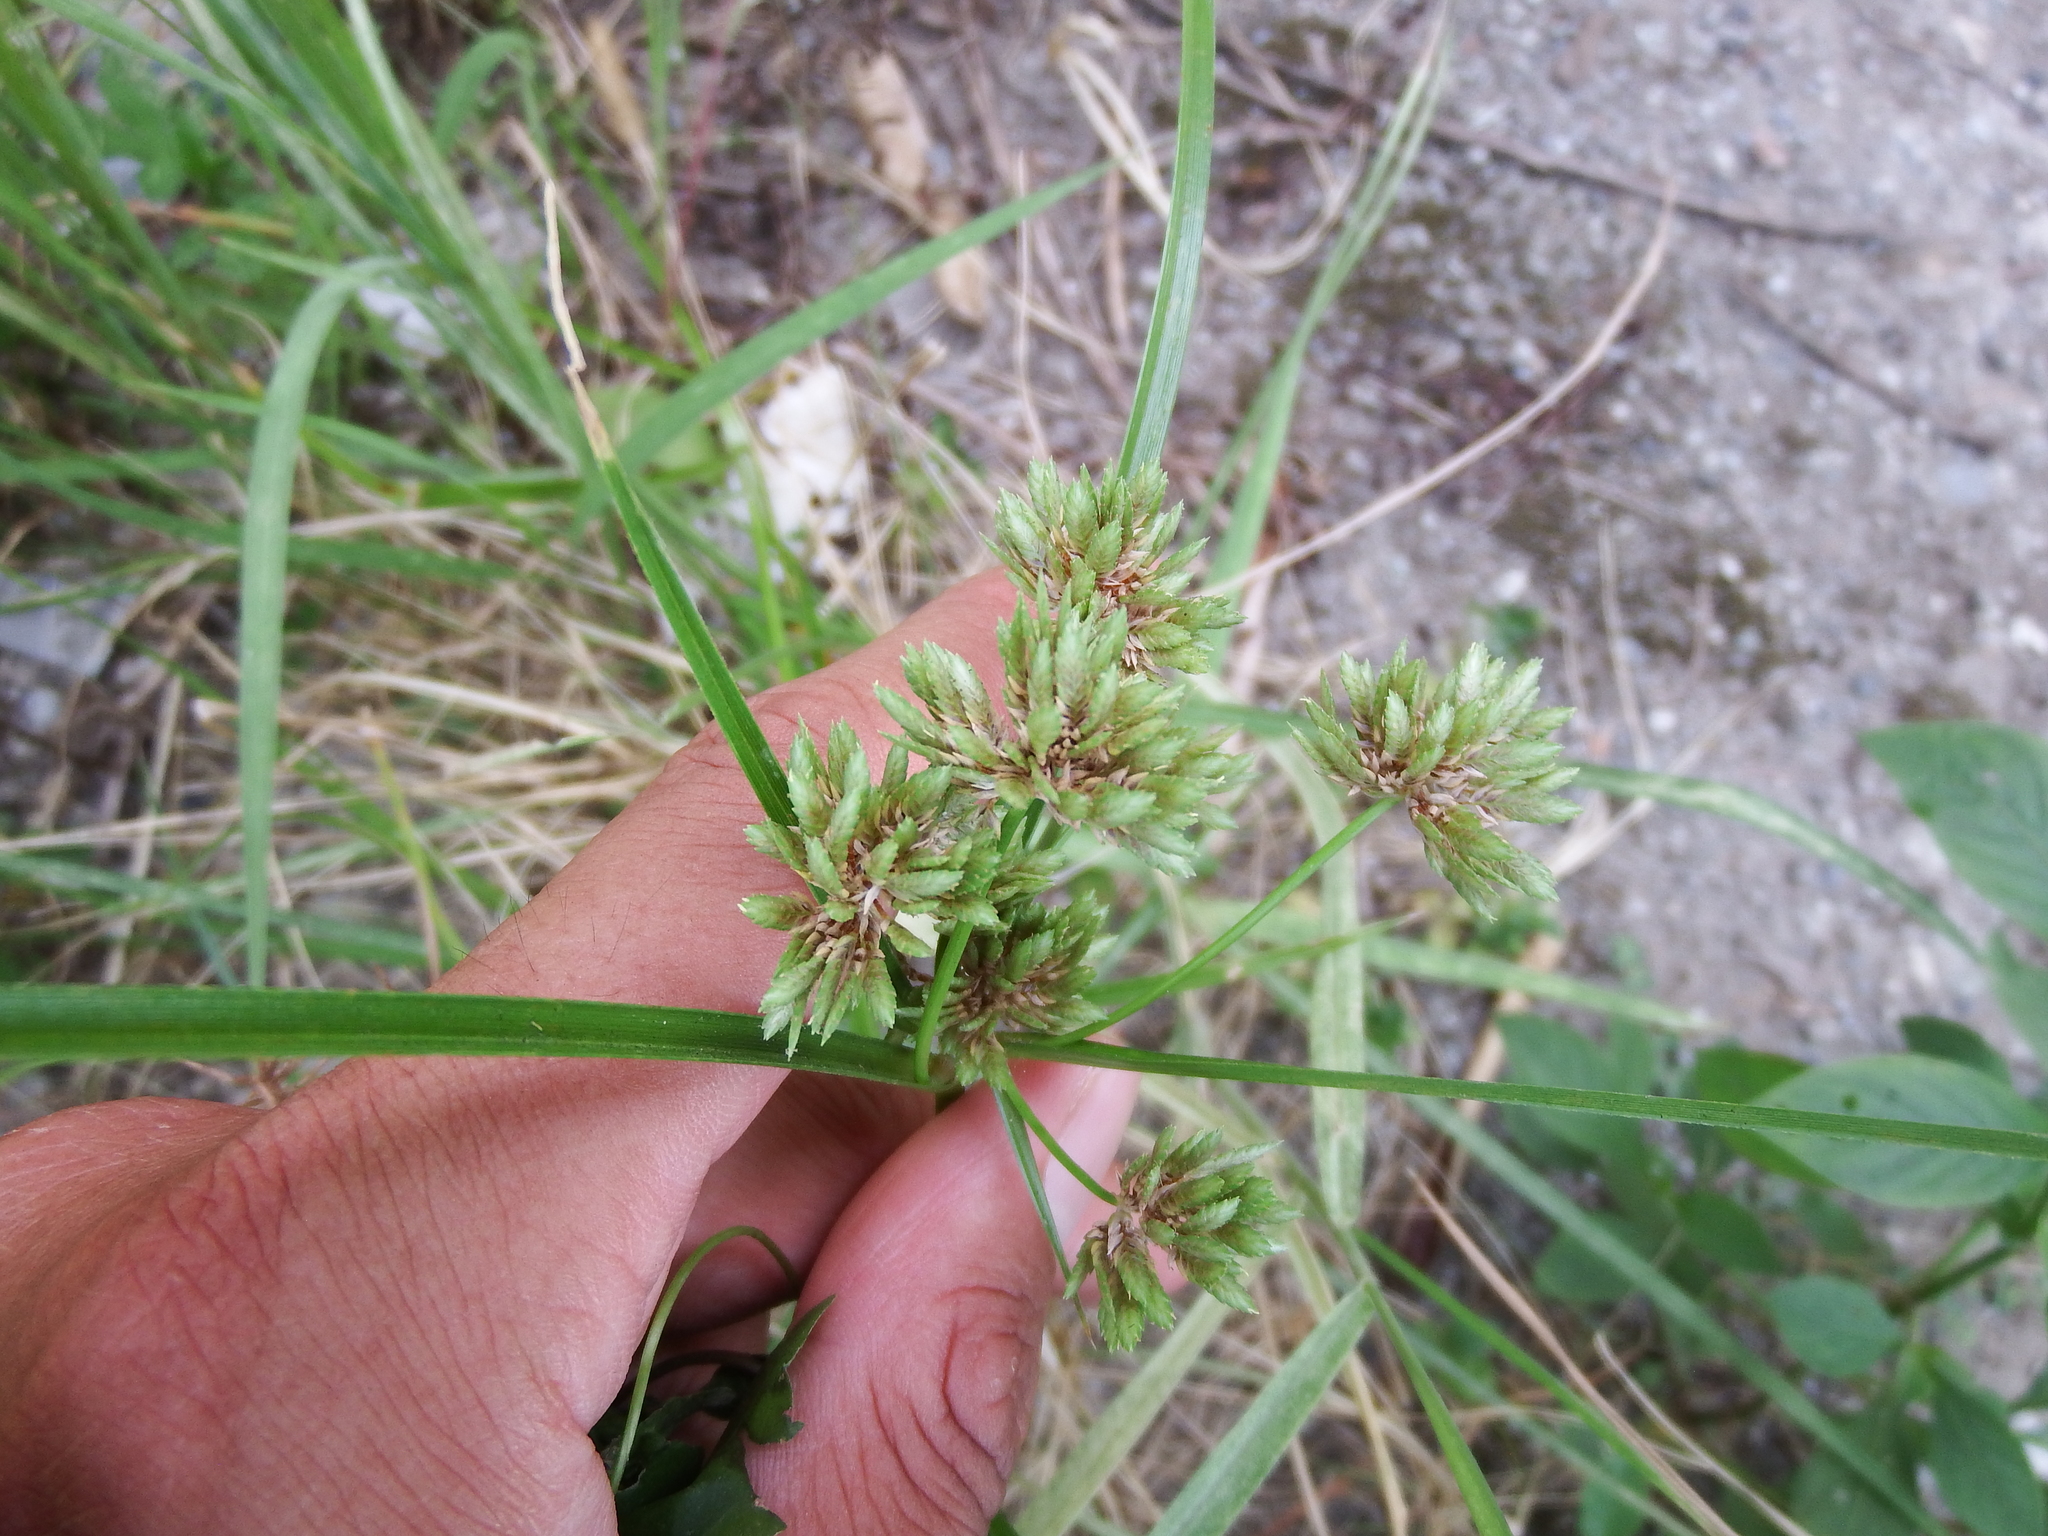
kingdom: Plantae
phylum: Tracheophyta
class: Liliopsida
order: Poales
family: Cyperaceae
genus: Cyperus
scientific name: Cyperus eragrostis
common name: Tall flatsedge
